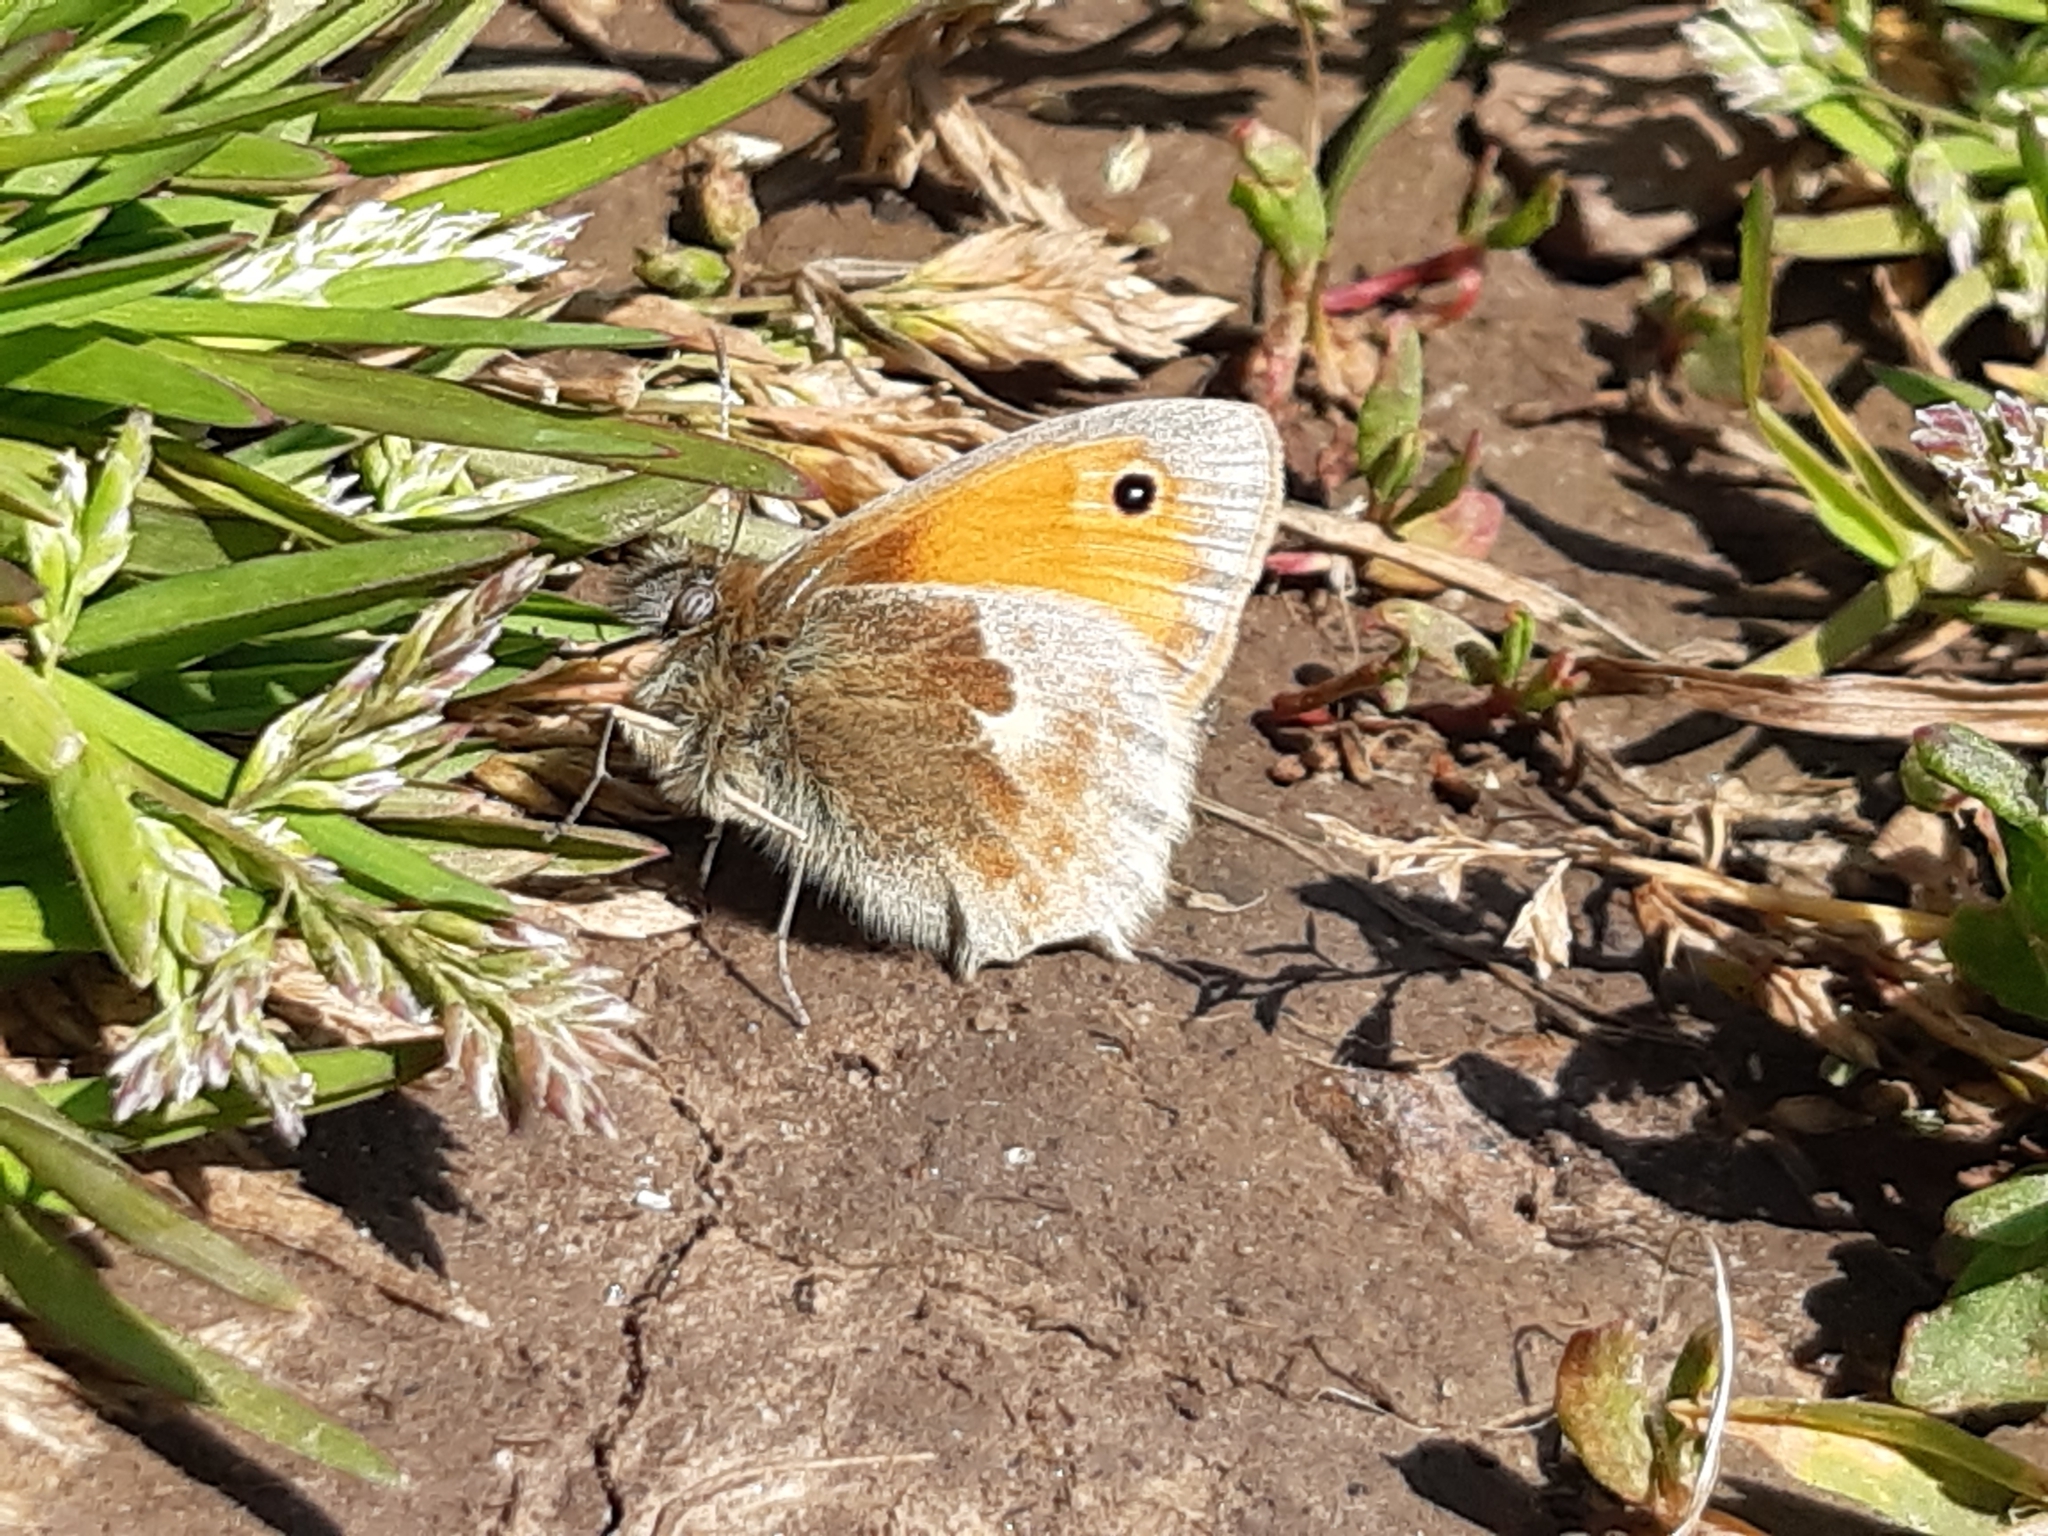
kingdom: Animalia
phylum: Arthropoda
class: Insecta
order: Lepidoptera
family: Nymphalidae
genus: Coenonympha
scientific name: Coenonympha pamphilus
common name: Small heath
